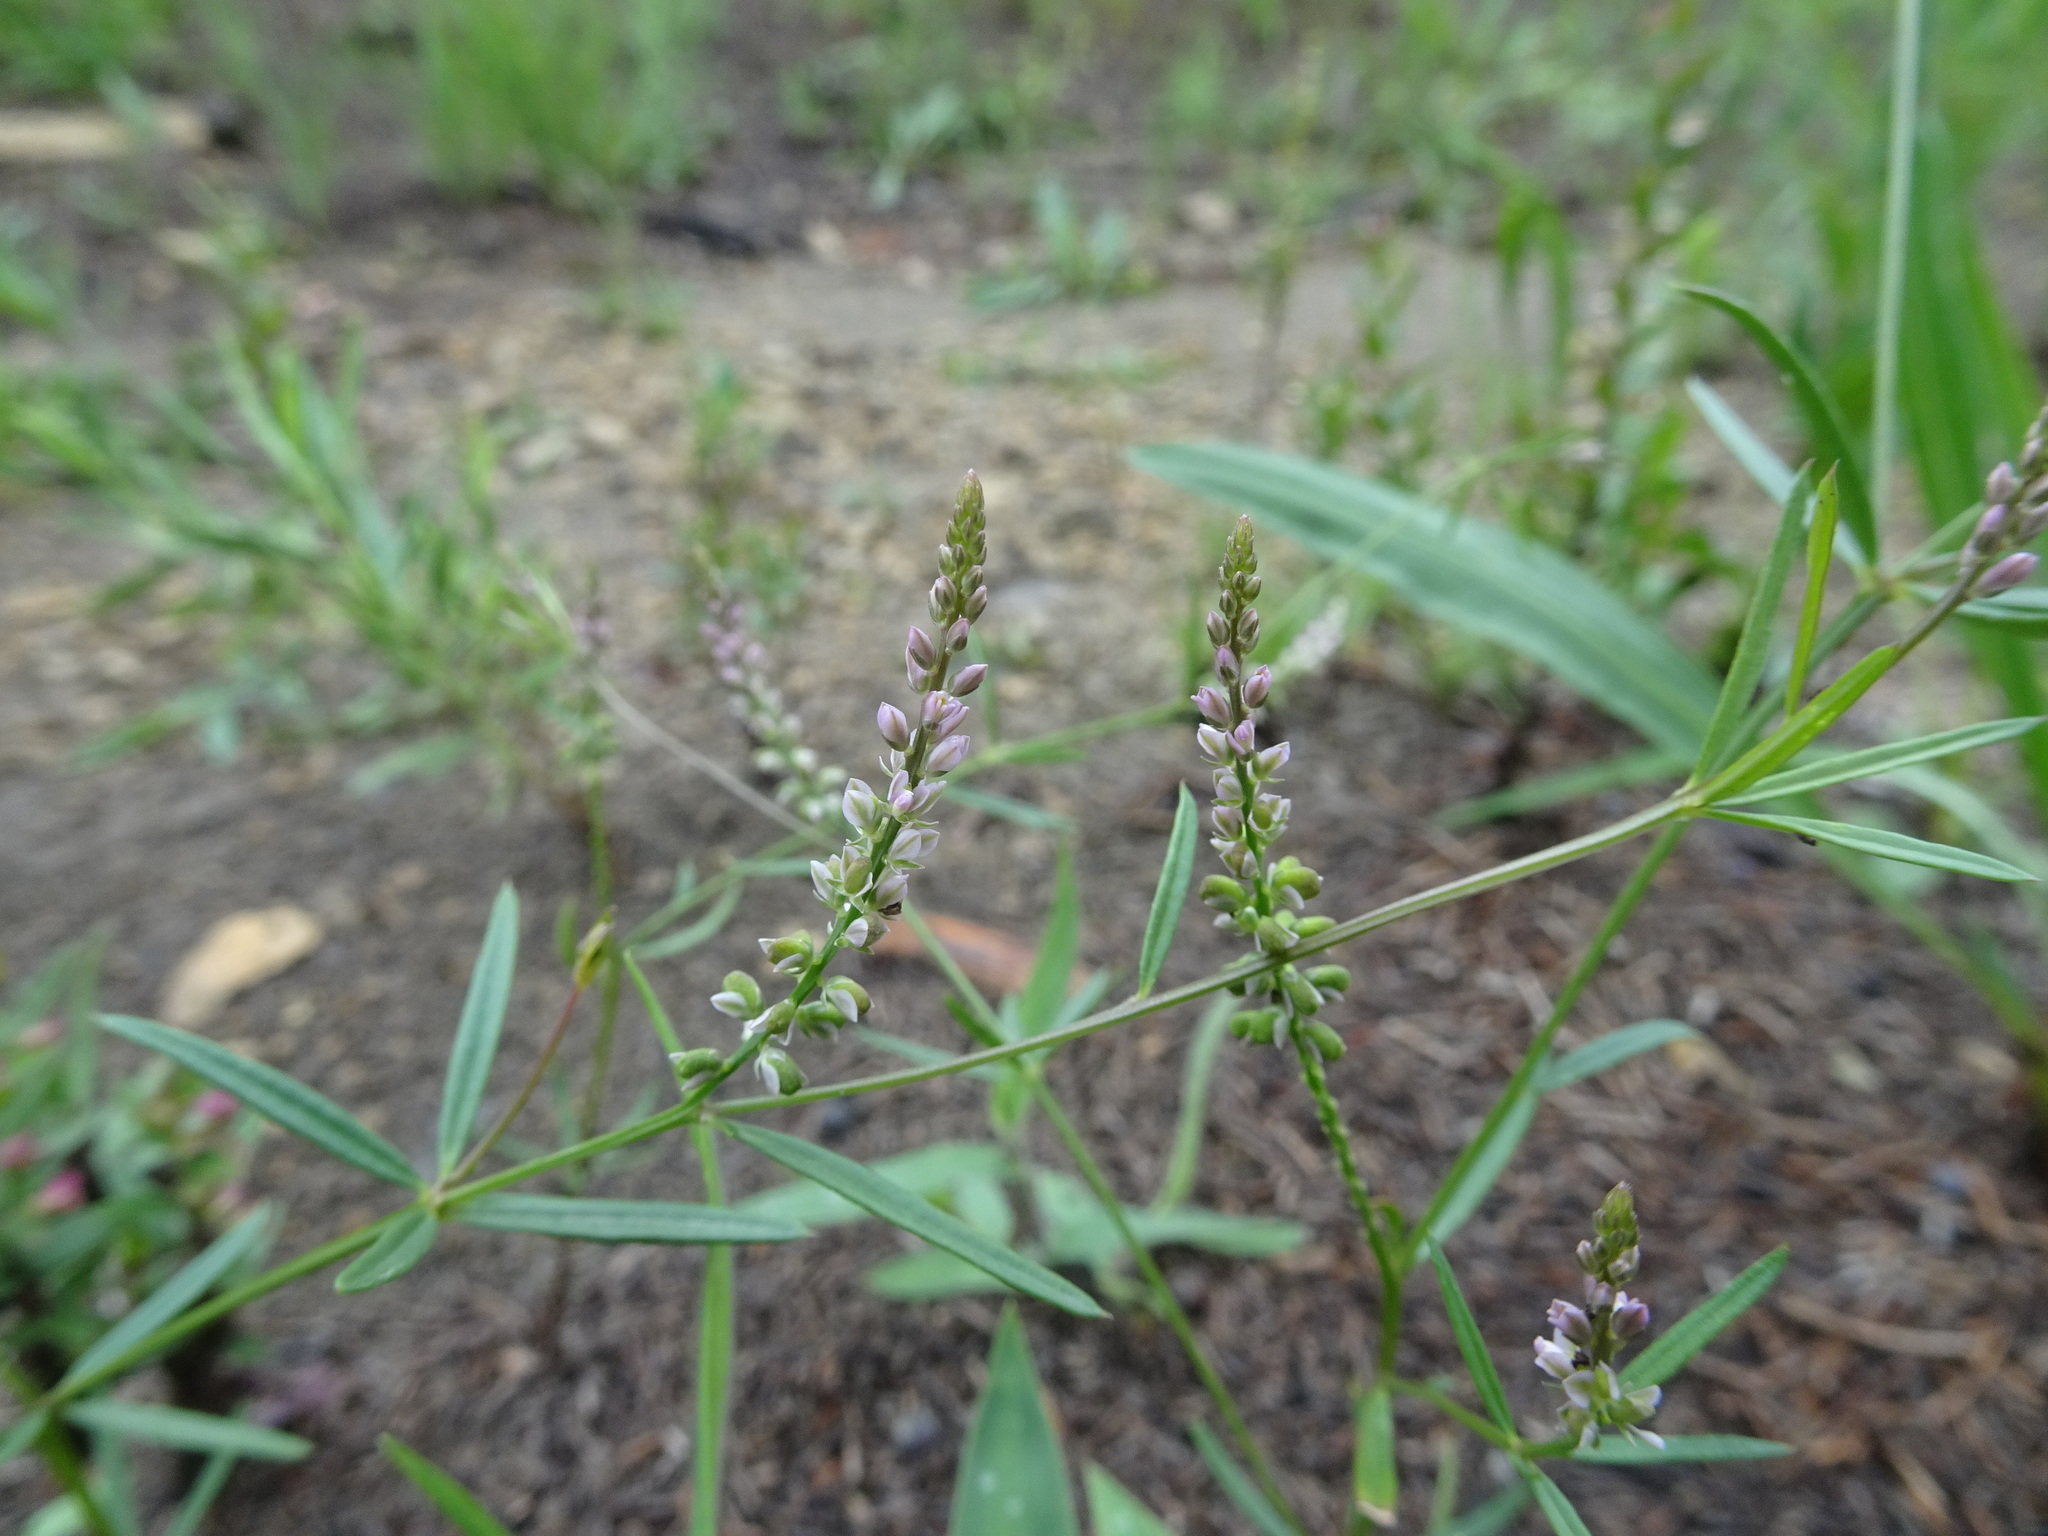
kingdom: Plantae
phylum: Tracheophyta
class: Magnoliopsida
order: Fabales
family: Polygalaceae
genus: Polygala
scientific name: Polygala verticillata
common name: Whorl milkwort
